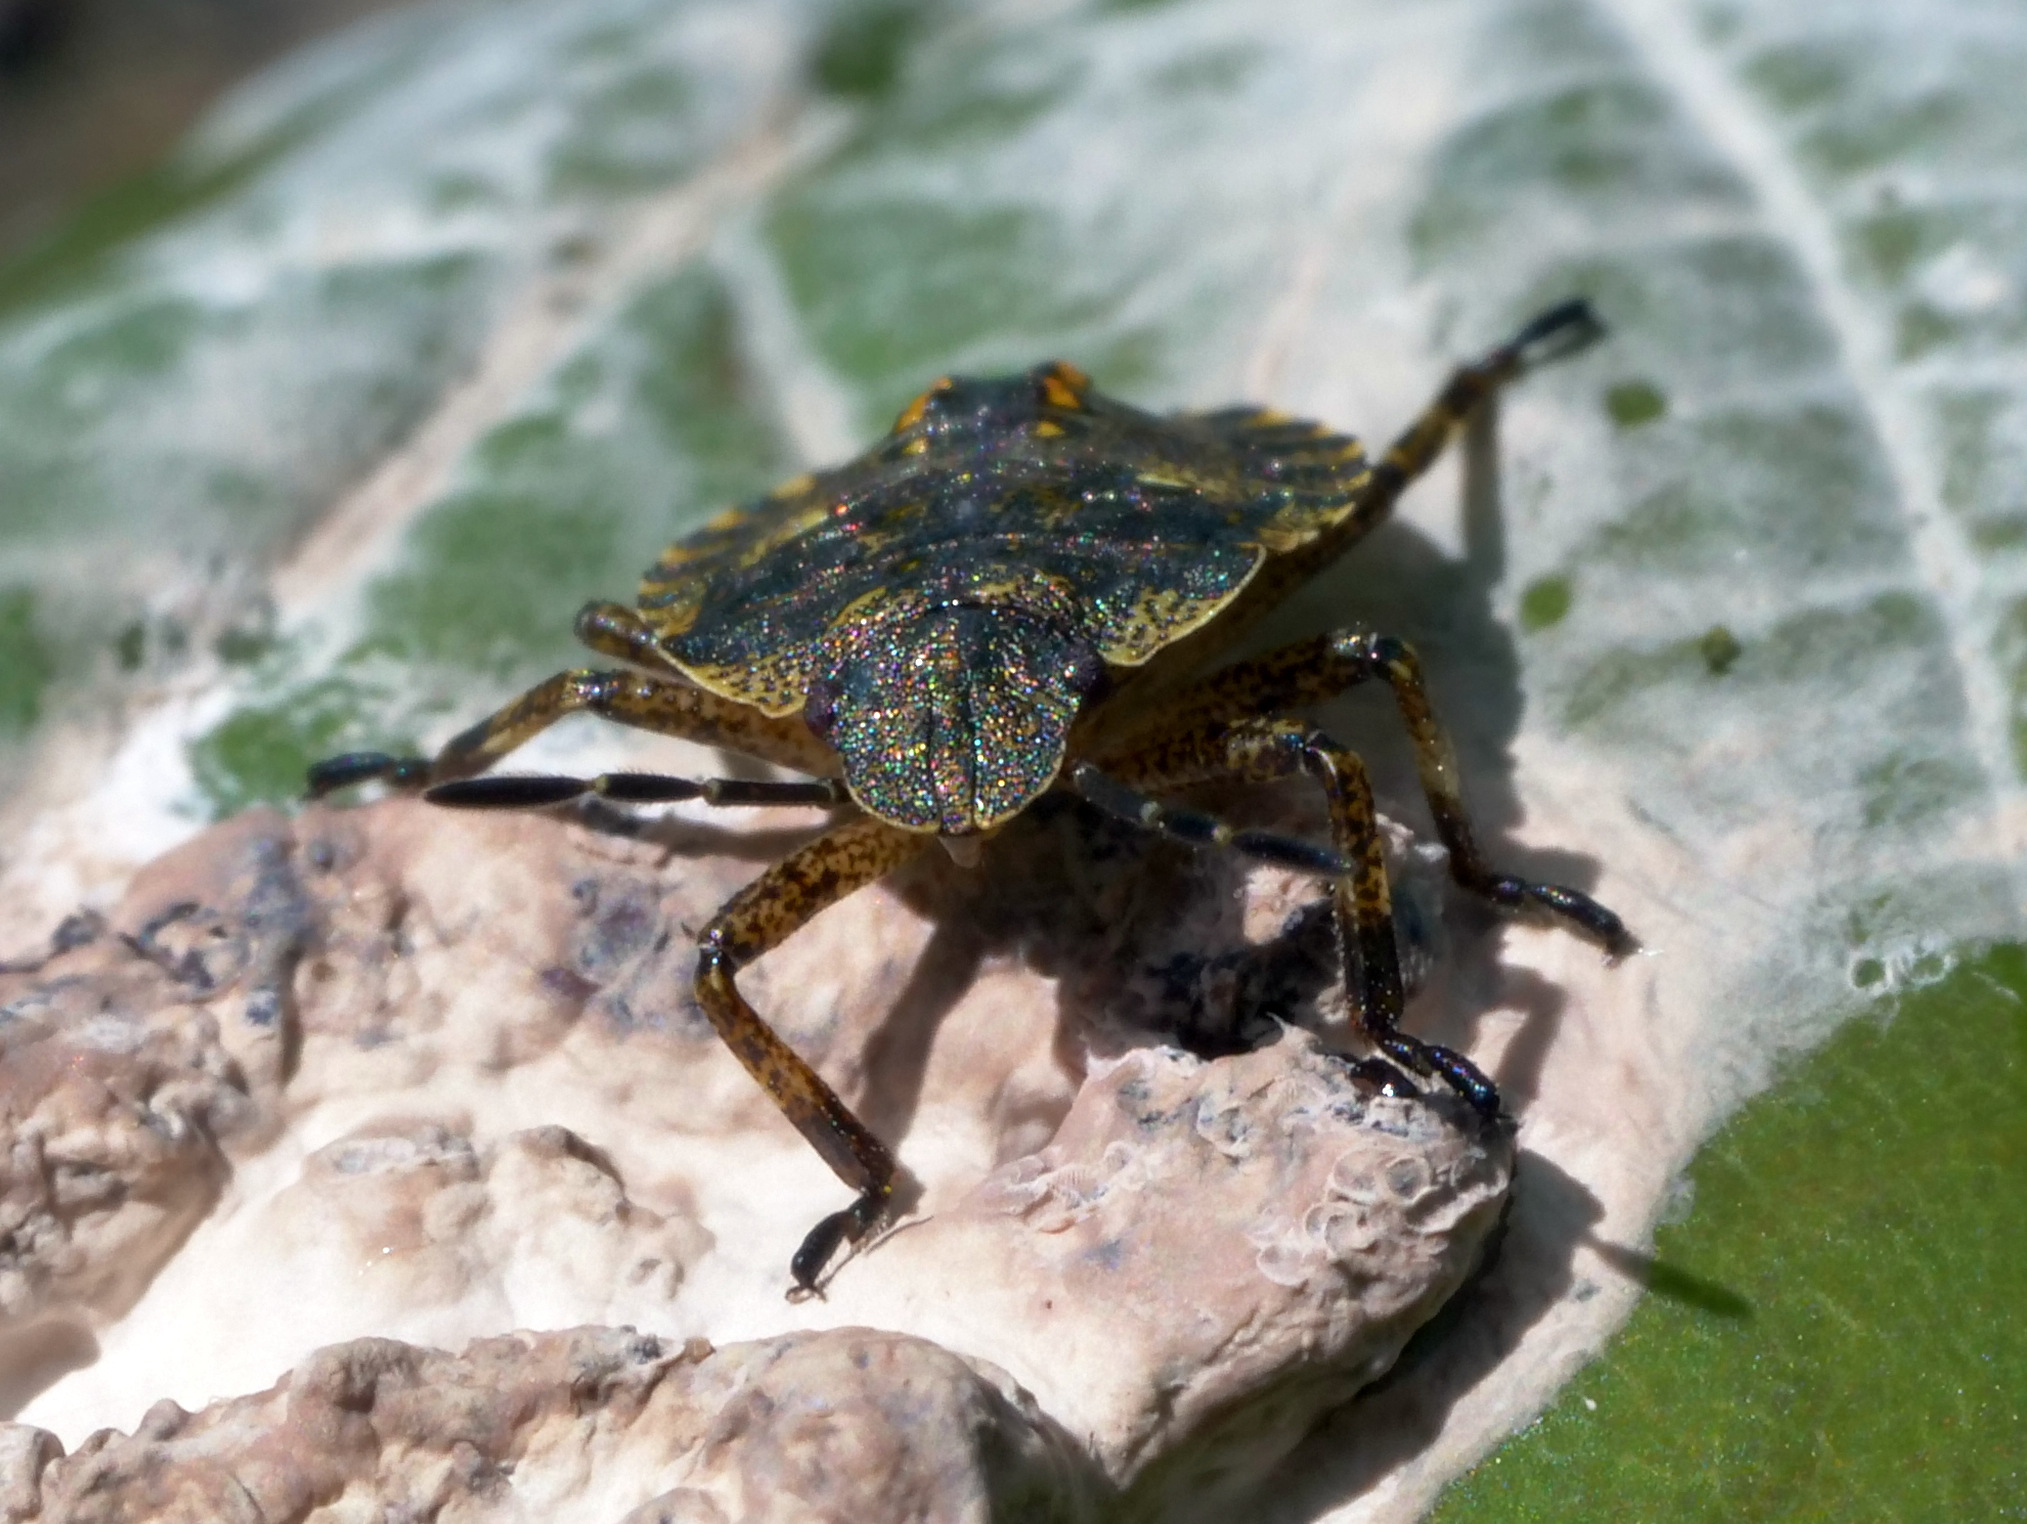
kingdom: Animalia
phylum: Arthropoda
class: Insecta
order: Hemiptera
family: Pentatomidae
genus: Pentatoma
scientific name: Pentatoma rufipes
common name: Forest bug
